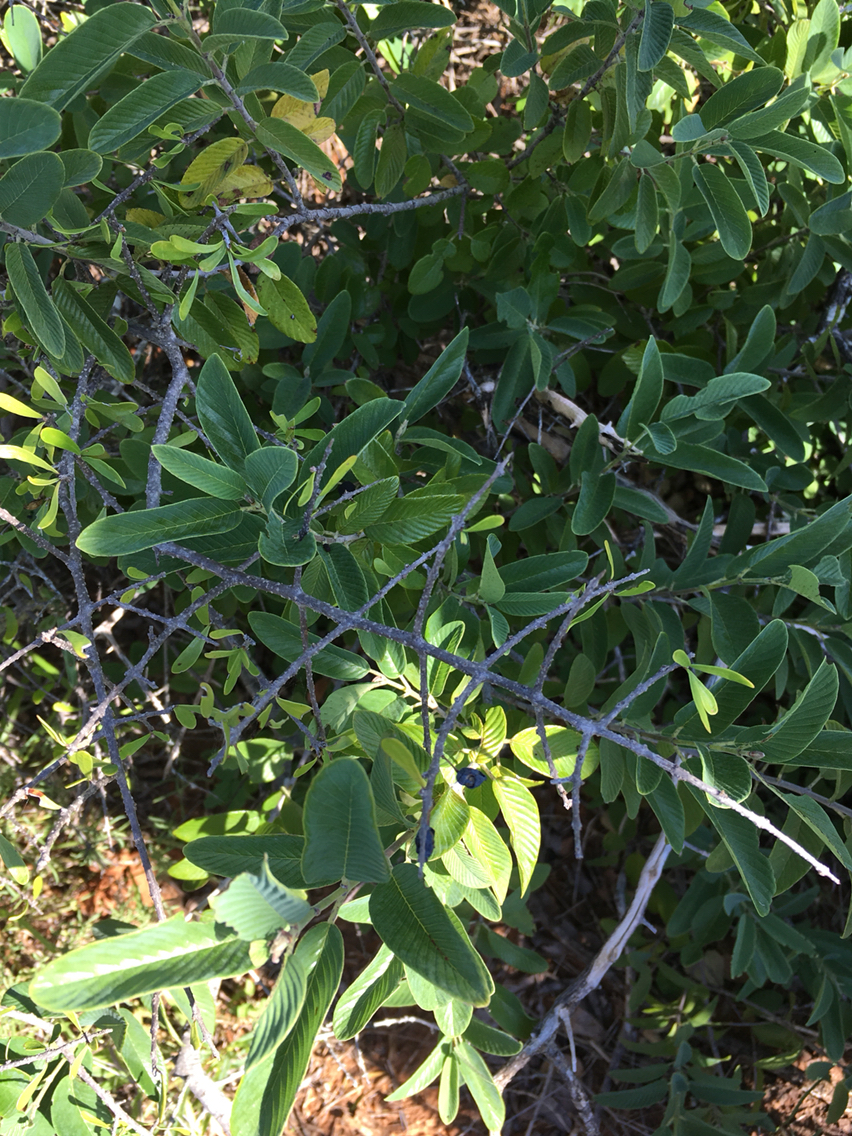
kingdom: Plantae
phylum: Tracheophyta
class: Magnoliopsida
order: Rosales
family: Rhamnaceae
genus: Karwinskia
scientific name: Karwinskia humboldtiana
